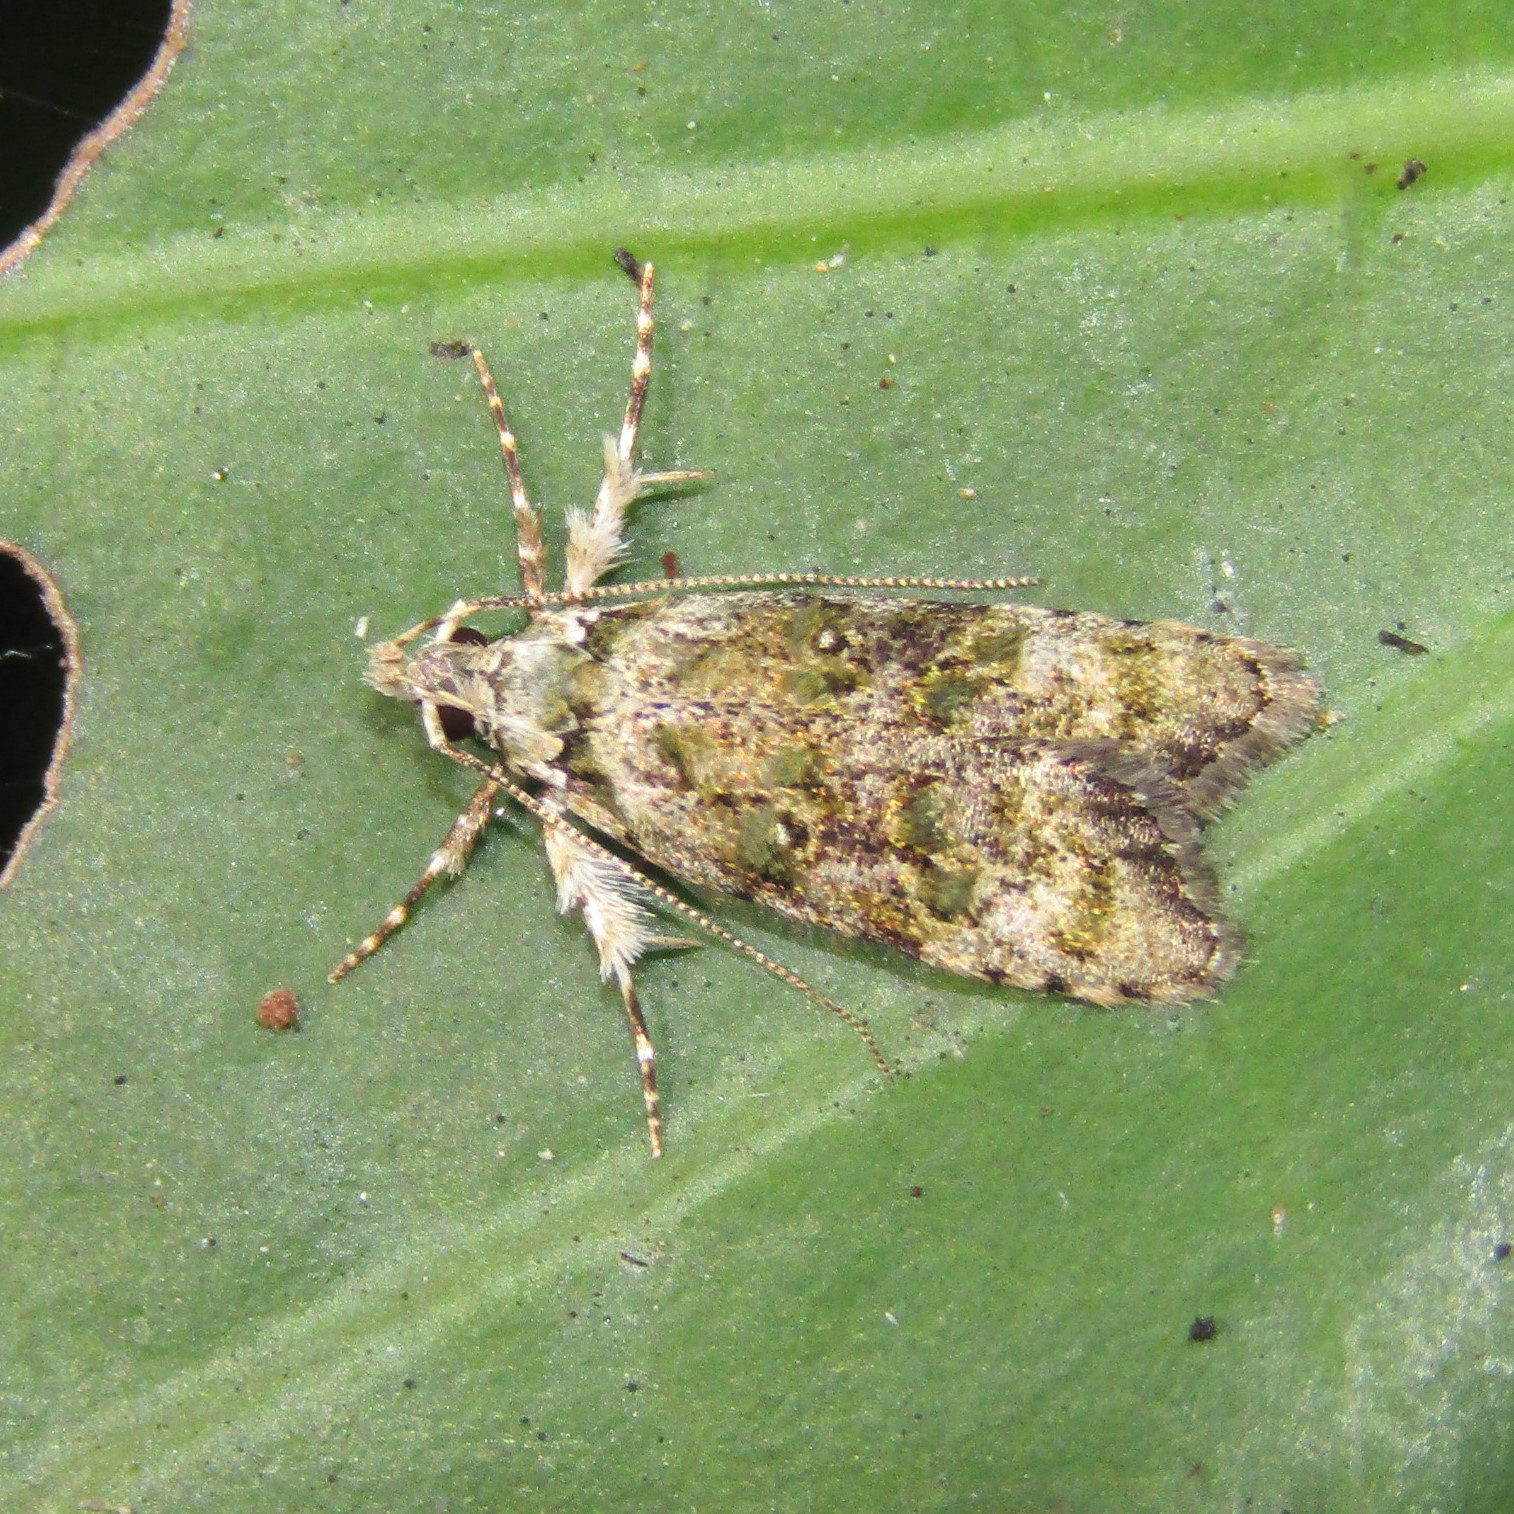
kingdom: Animalia
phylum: Arthropoda
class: Insecta
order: Lepidoptera
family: Oecophoridae
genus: Izatha
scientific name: Izatha prasophyta
